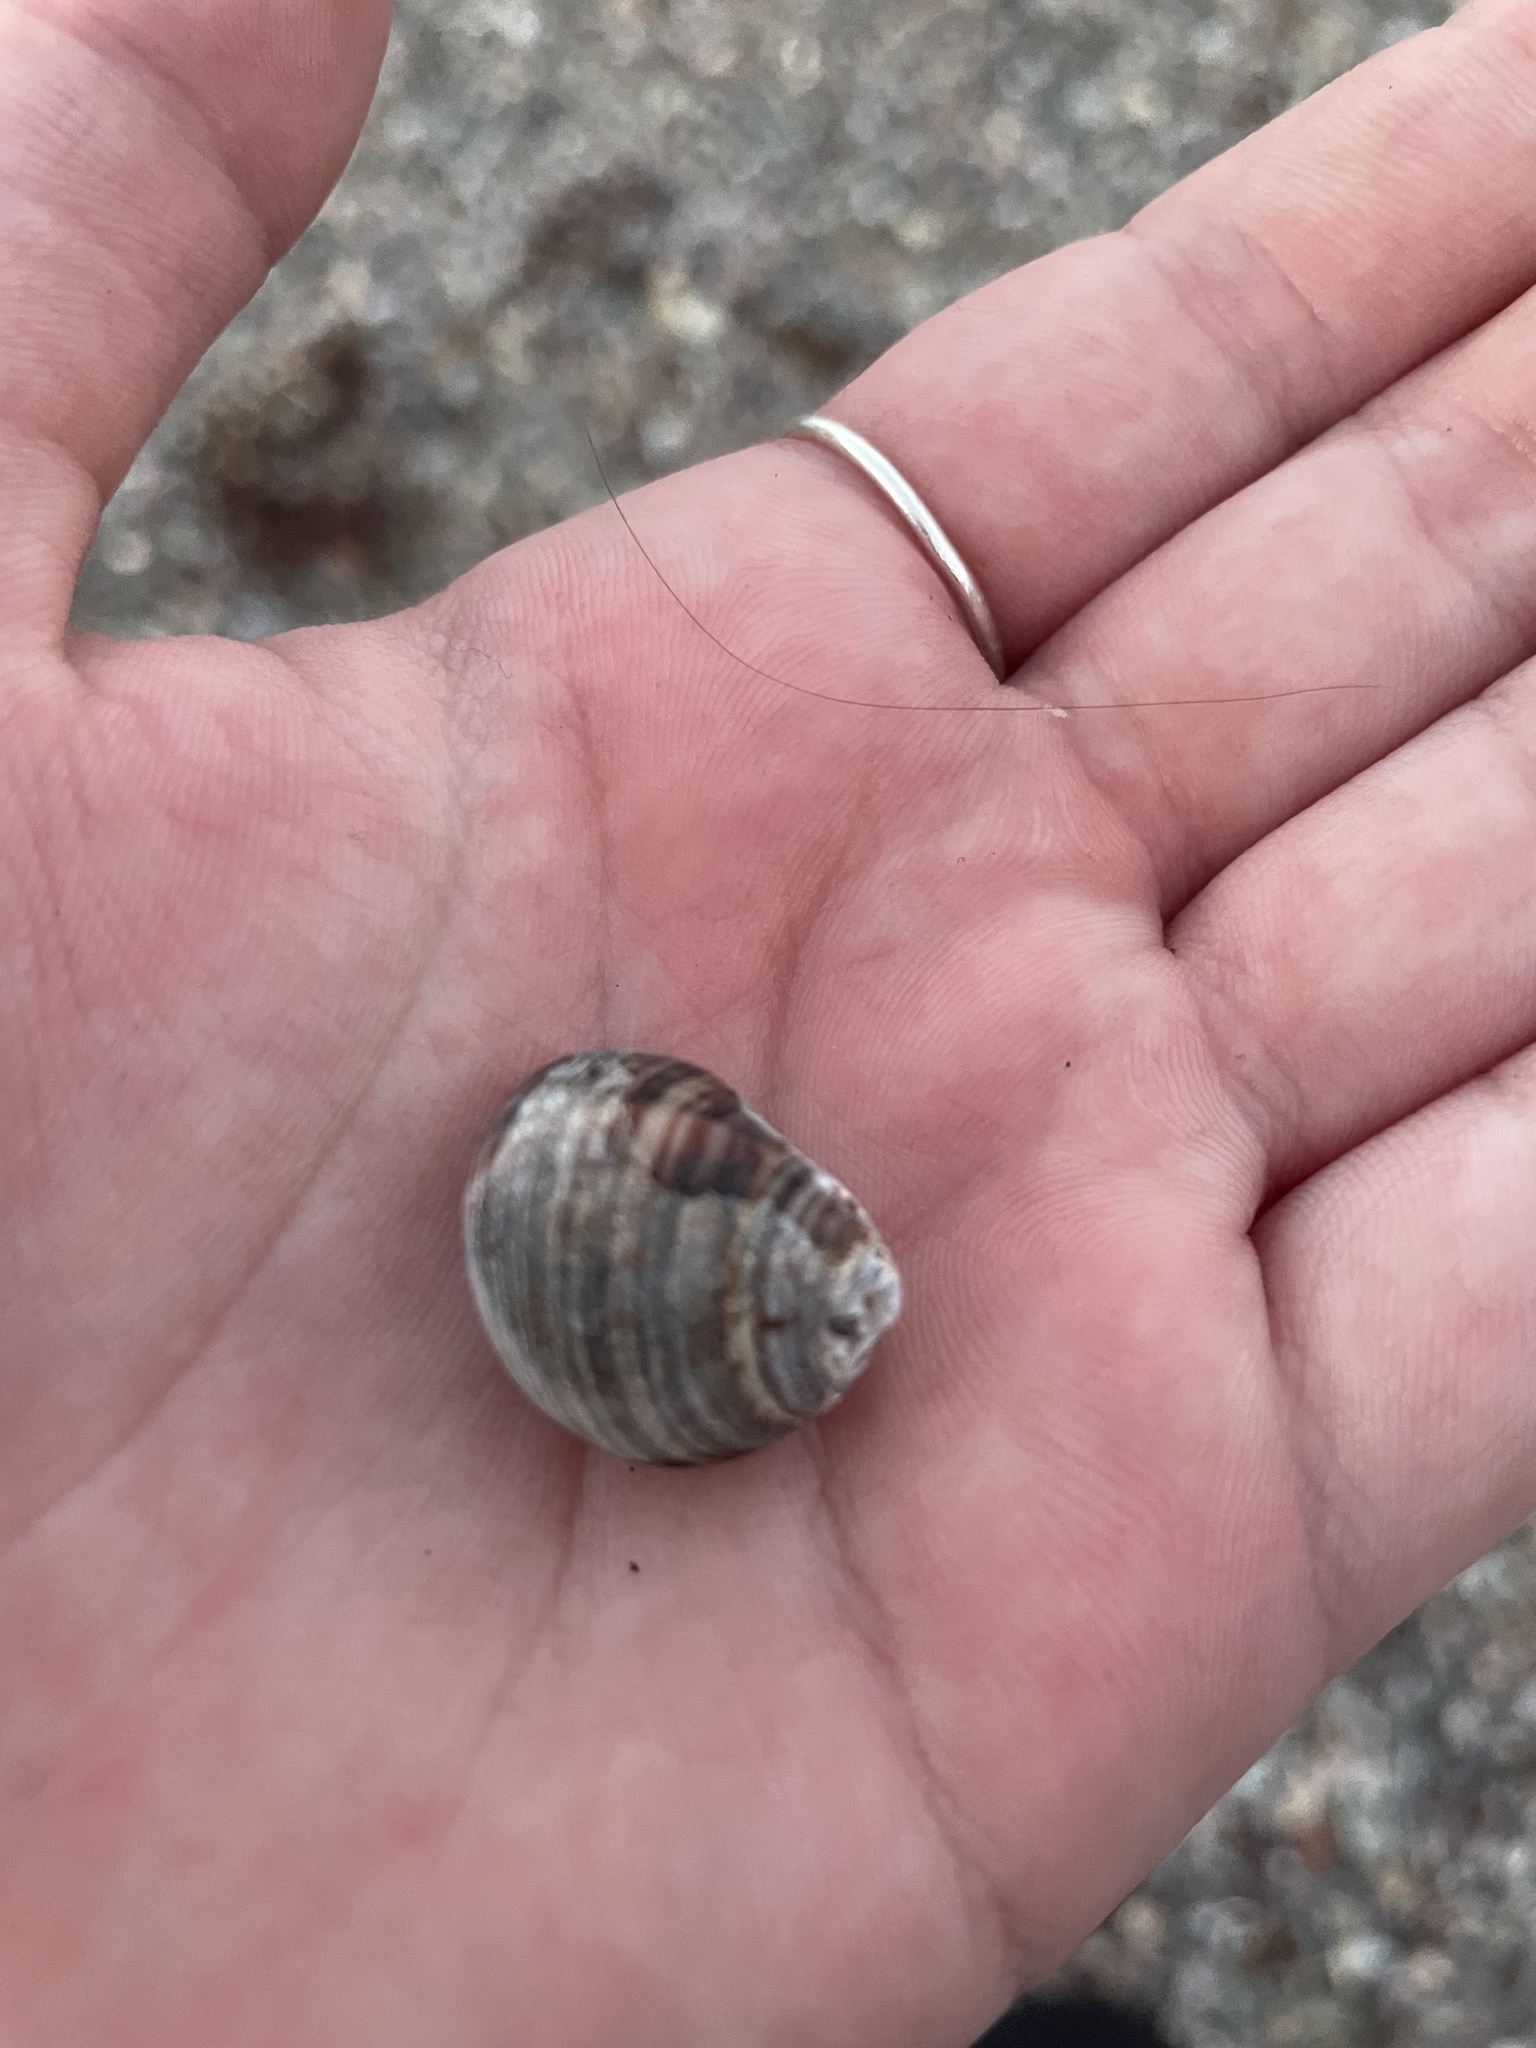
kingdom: Animalia
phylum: Mollusca
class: Gastropoda
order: Littorinimorpha
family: Littorinidae
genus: Littorina
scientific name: Littorina littorea
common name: Common periwinkle
